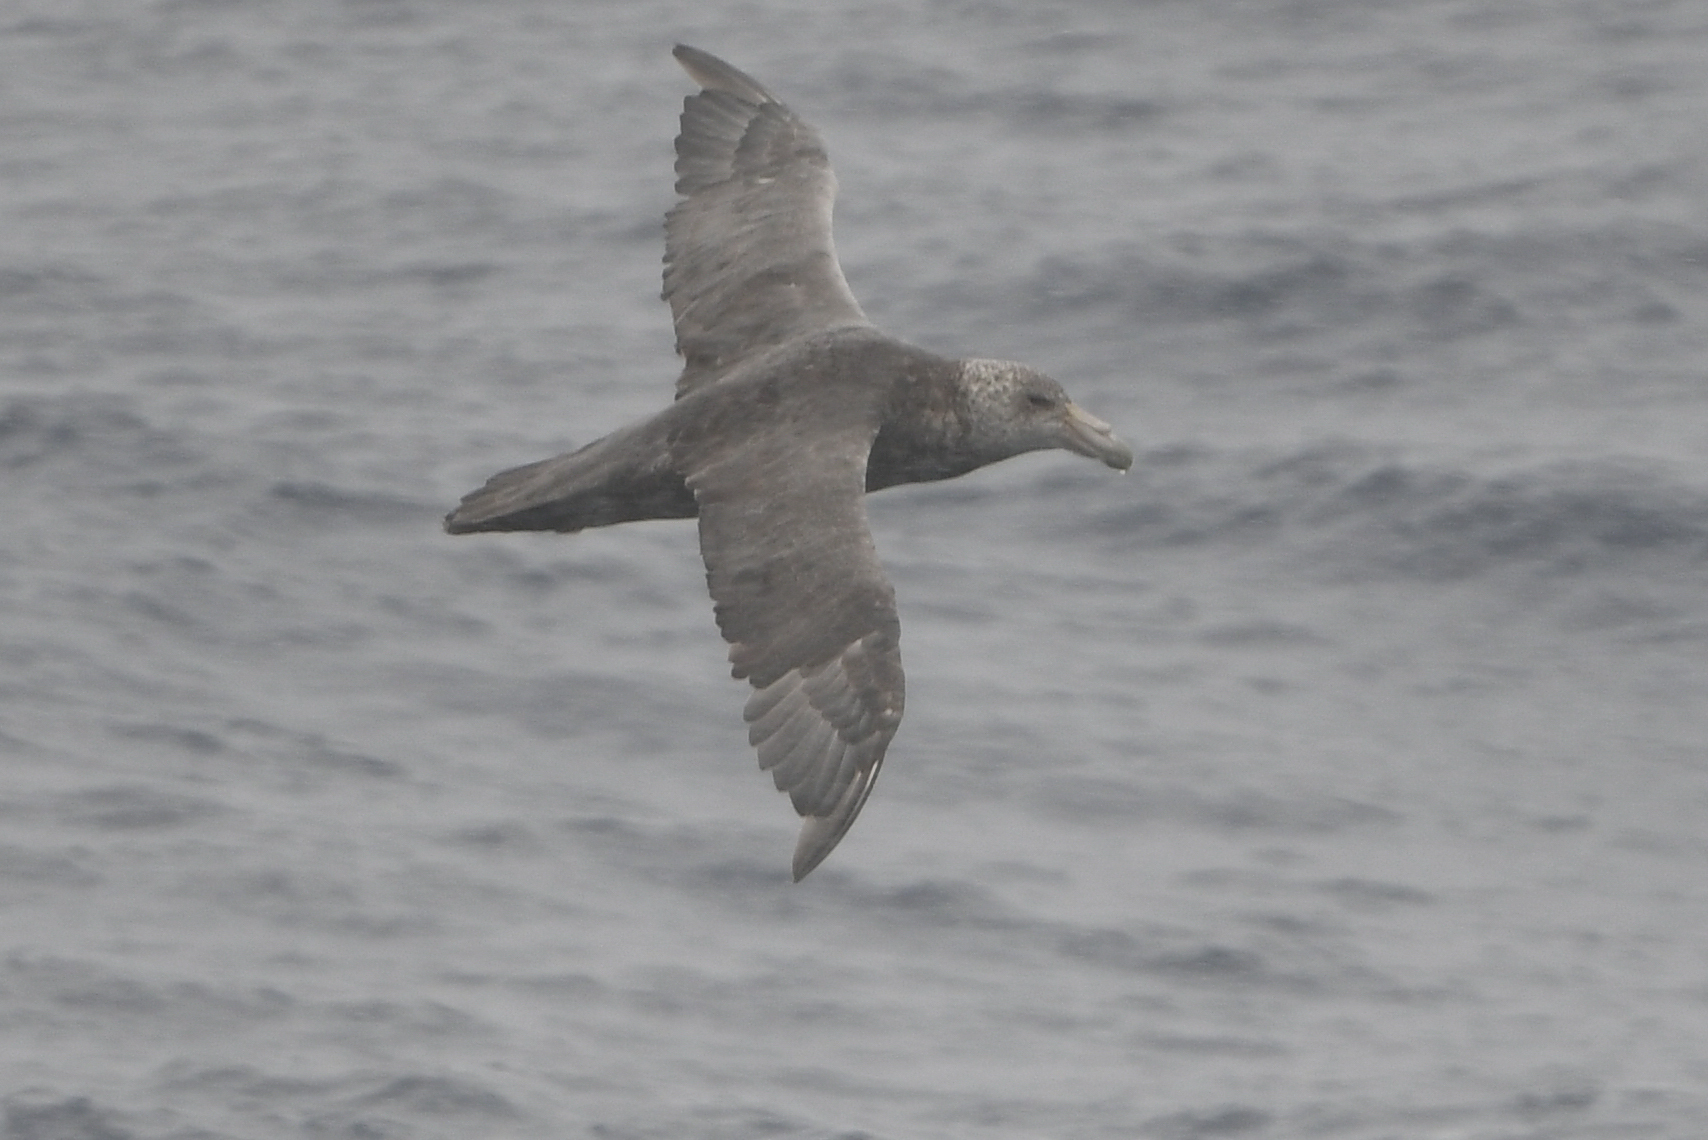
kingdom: Animalia
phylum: Chordata
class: Aves
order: Procellariiformes
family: Procellariidae
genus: Macronectes
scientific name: Macronectes giganteus
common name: Southern giant petrel
